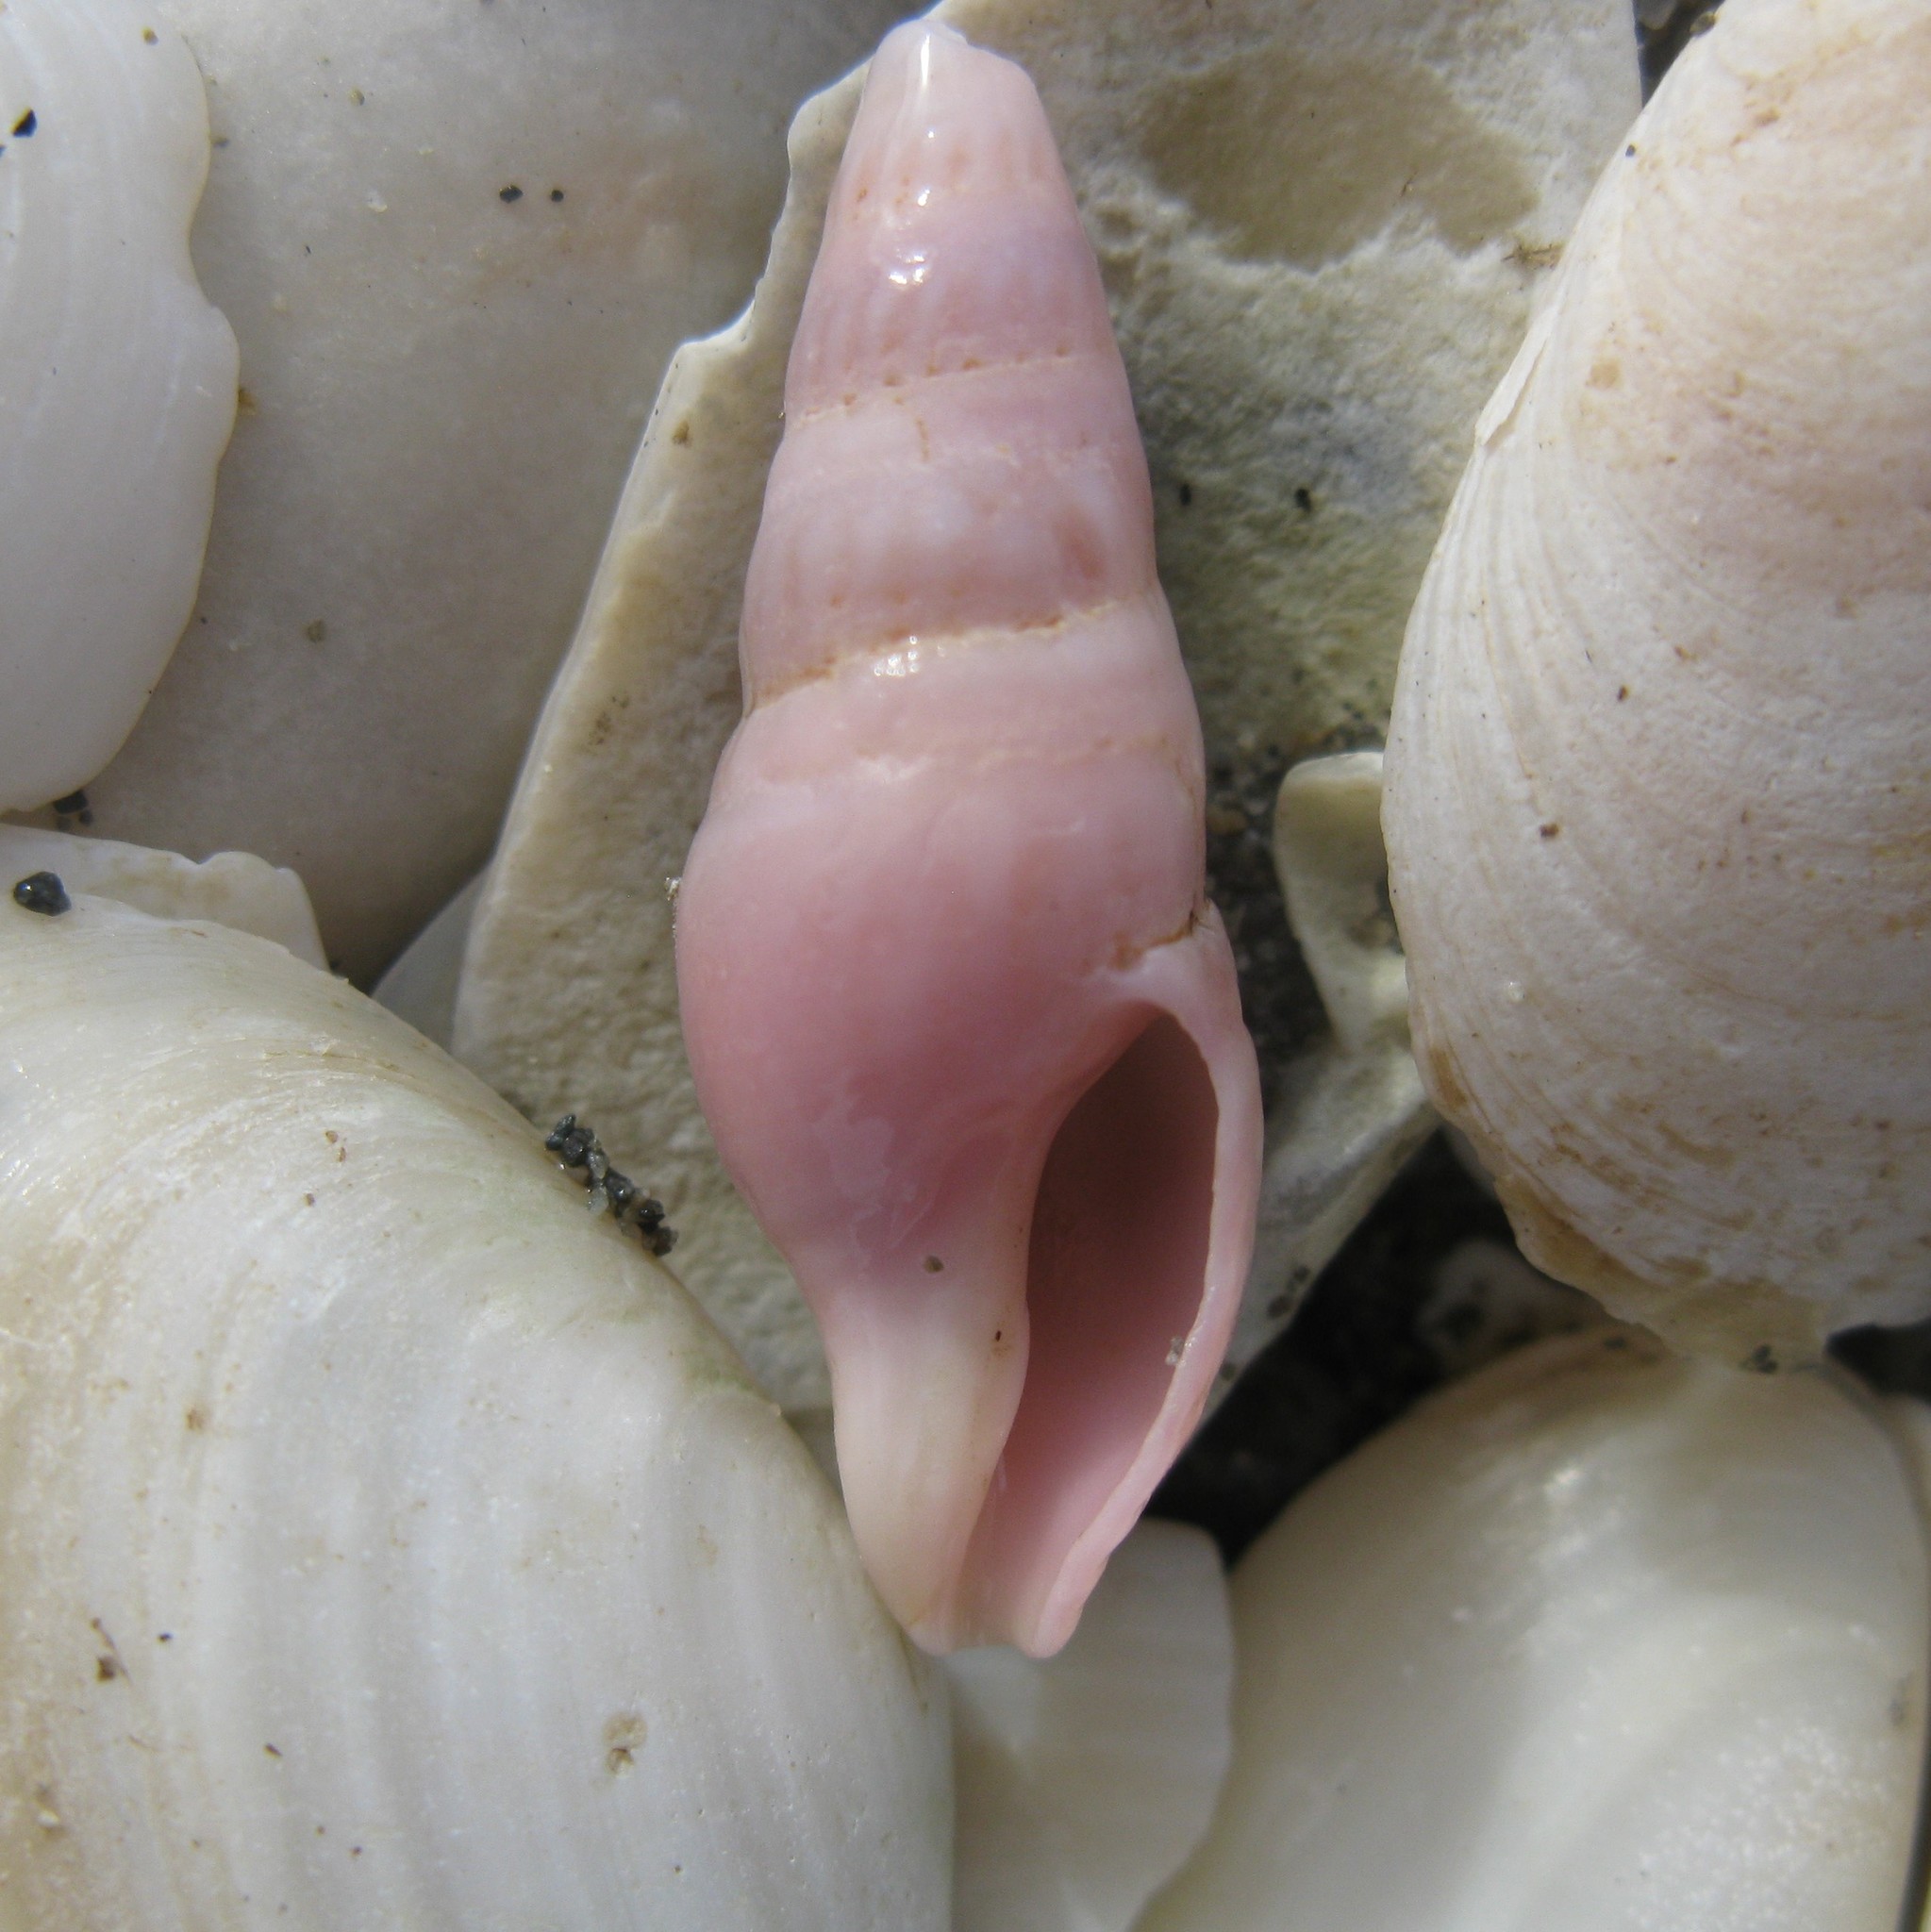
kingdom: Animalia
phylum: Mollusca
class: Gastropoda
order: Neogastropoda
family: Borsoniidae
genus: Phenatoma
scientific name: Phenatoma roseum
